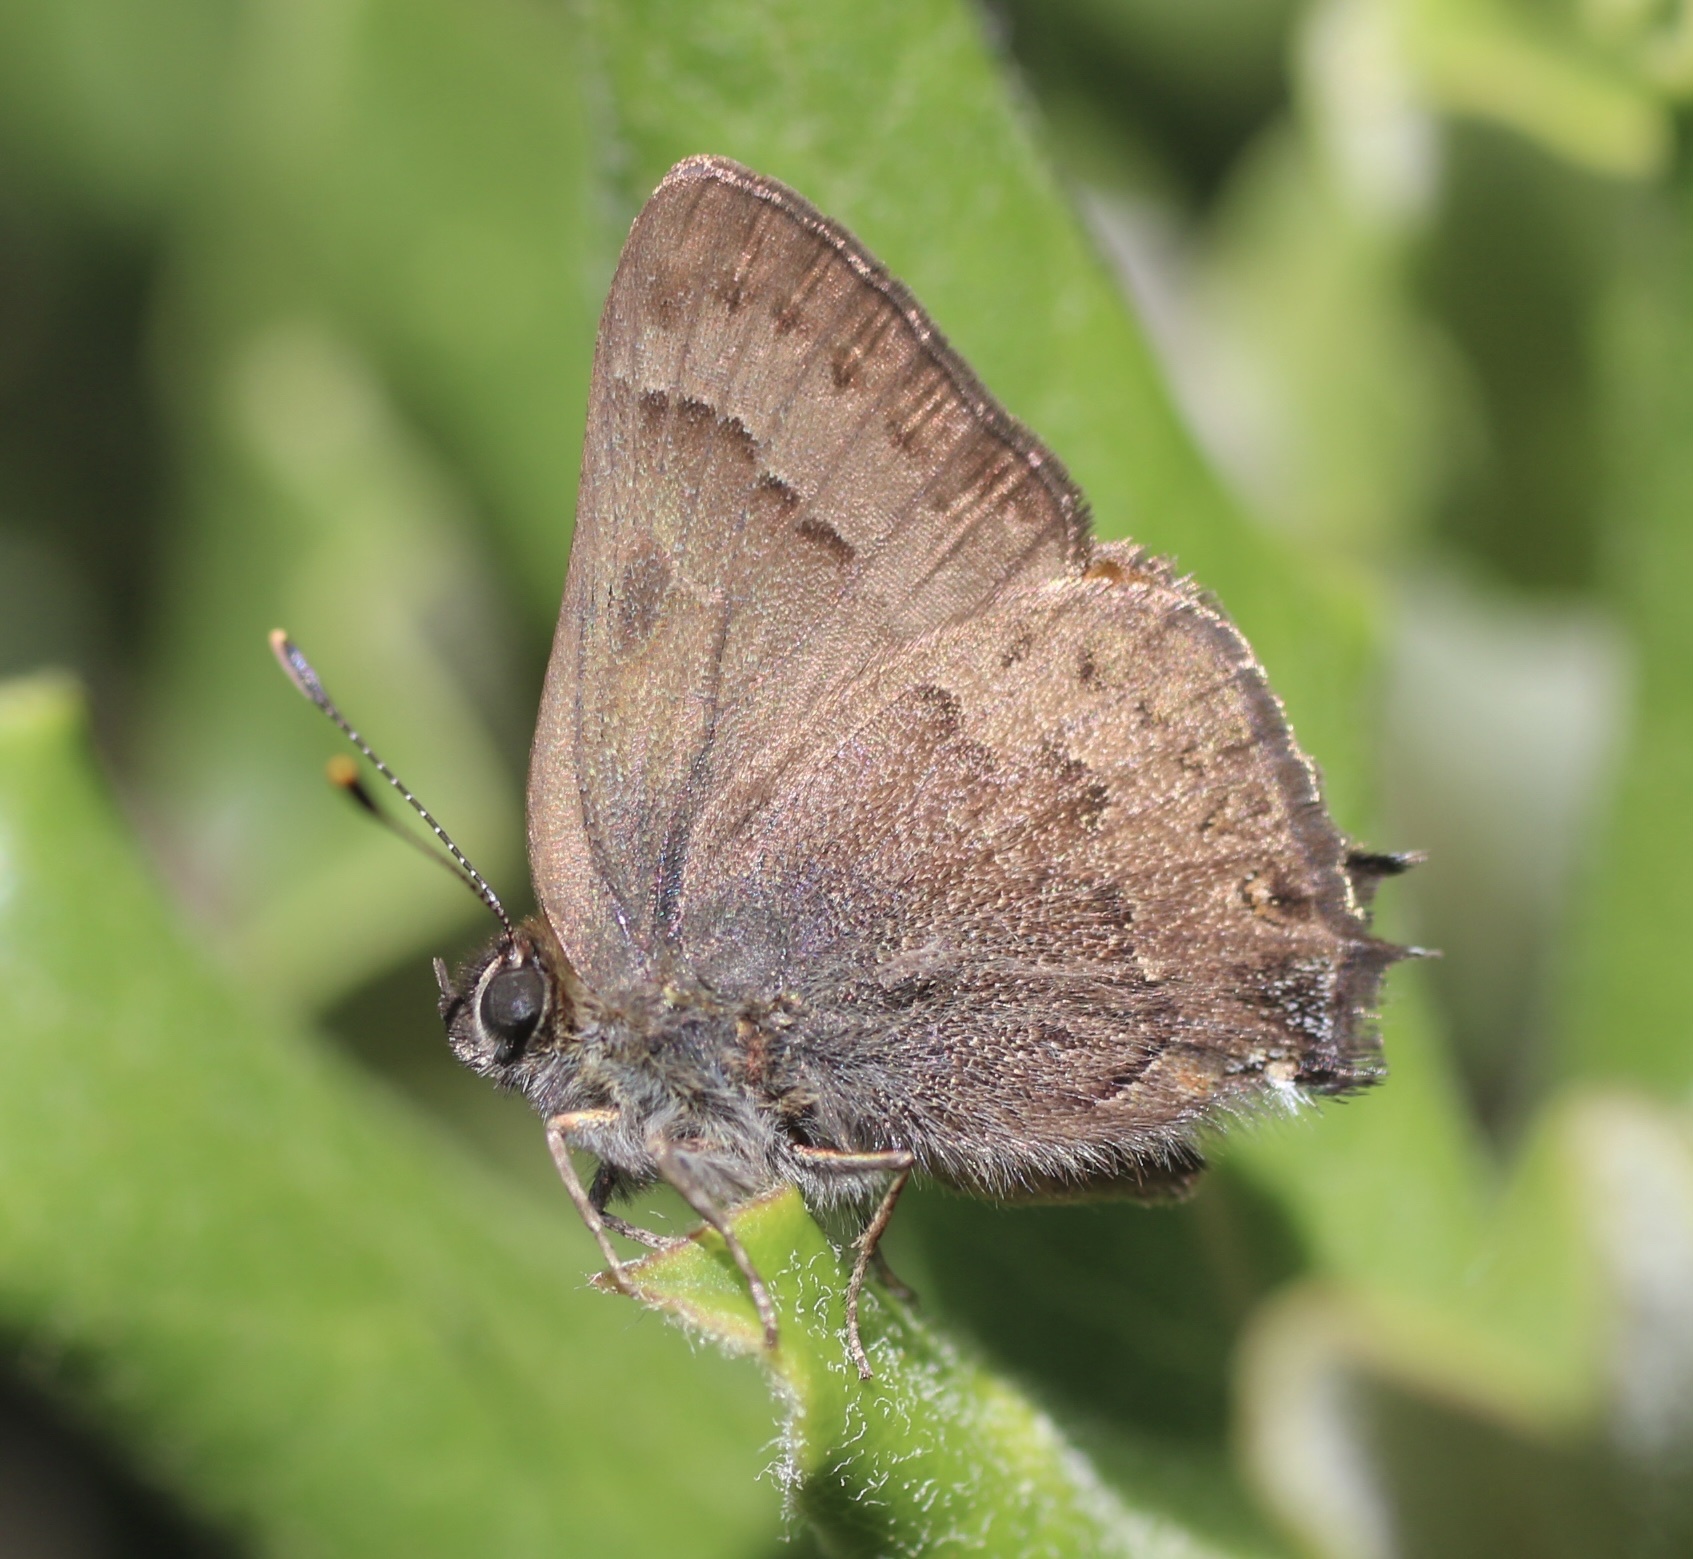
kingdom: Animalia
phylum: Arthropoda
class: Insecta
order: Lepidoptera
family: Lycaenidae
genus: Strymon
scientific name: Strymon saepium
